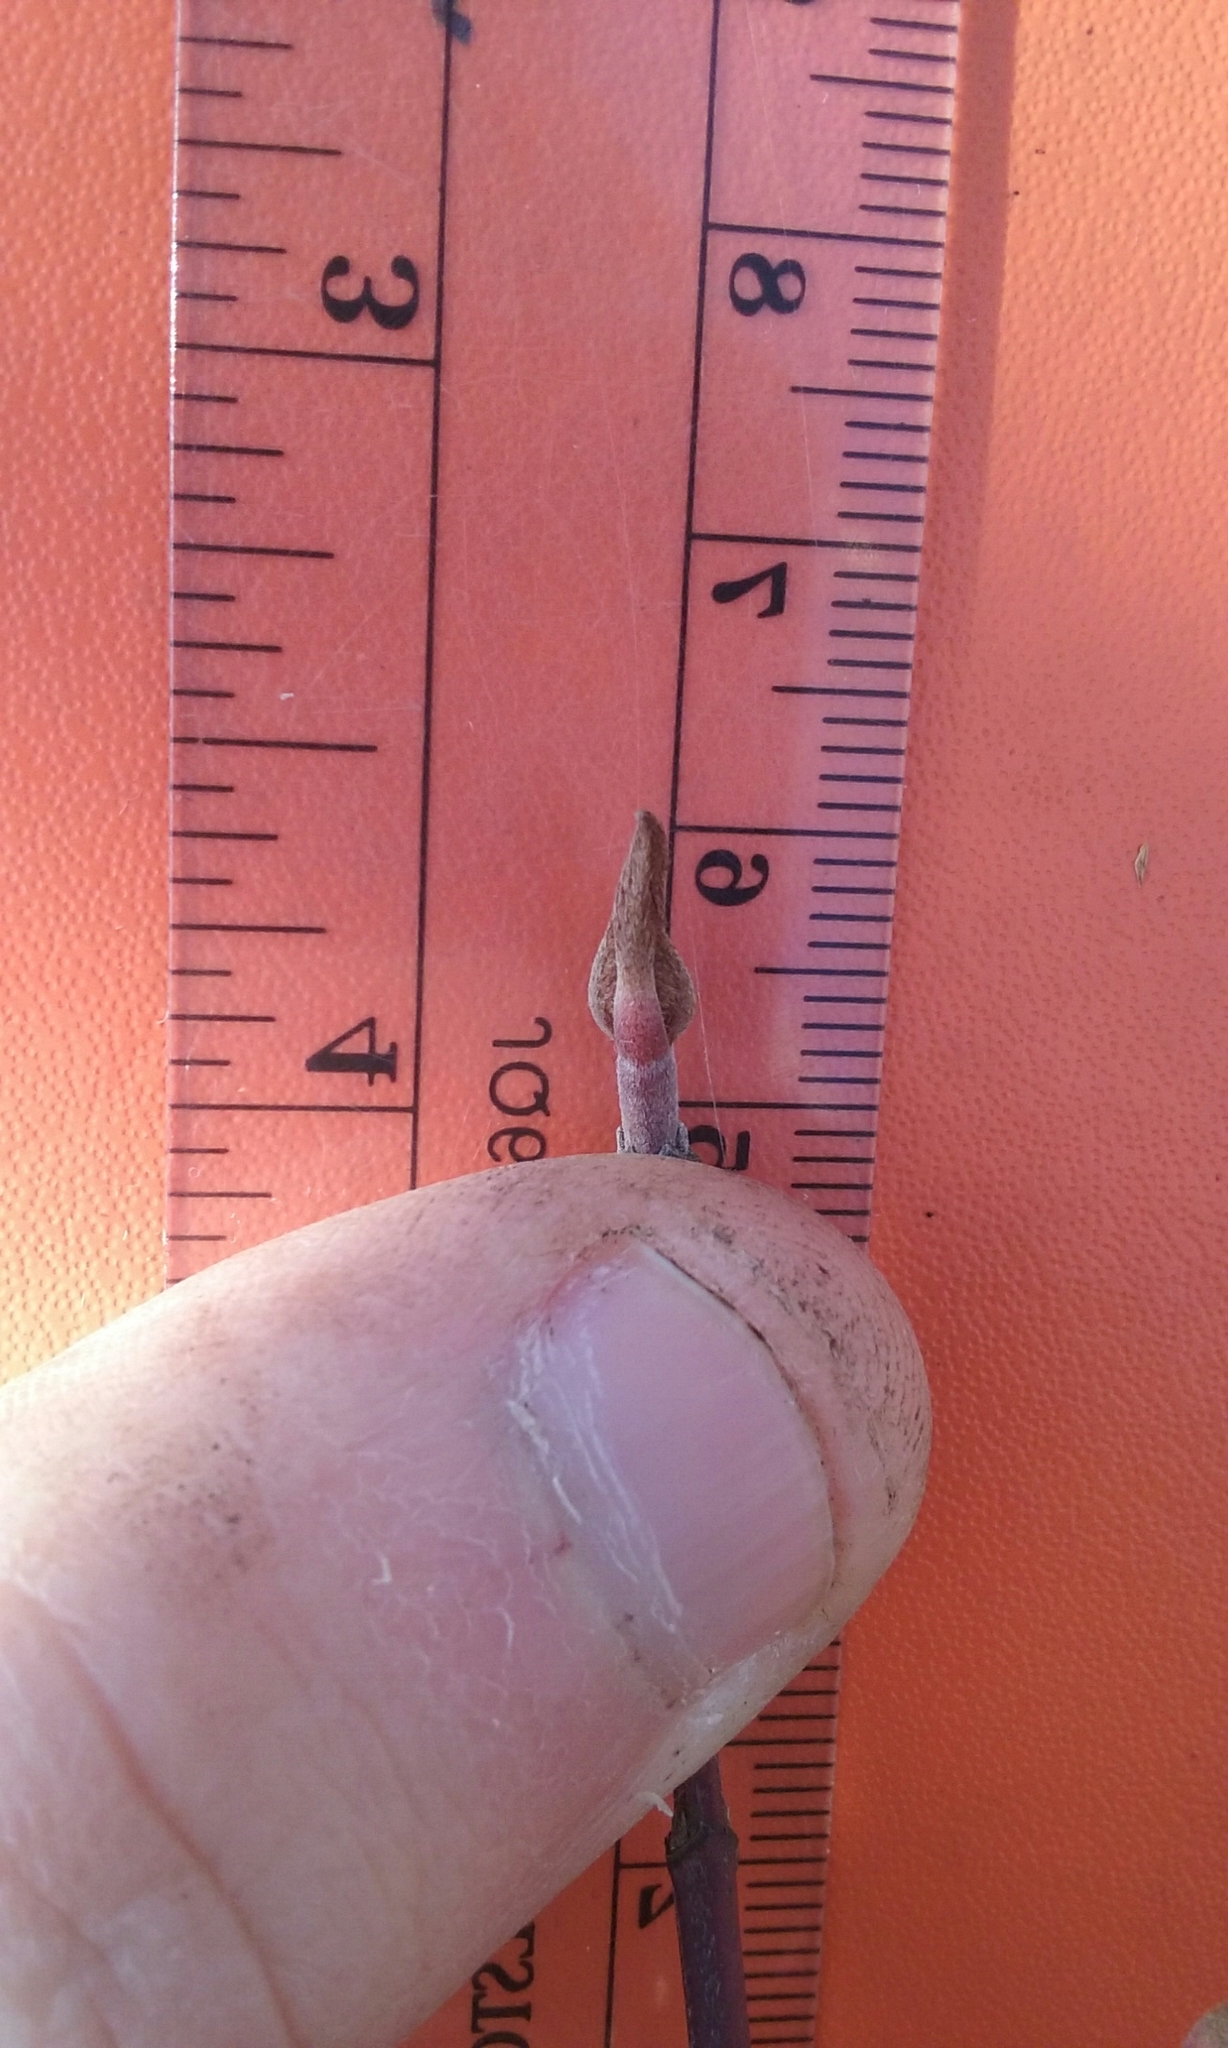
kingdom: Plantae
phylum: Tracheophyta
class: Magnoliopsida
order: Cornales
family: Cornaceae
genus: Cornus
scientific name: Cornus sericea
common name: Red-osier dogwood
